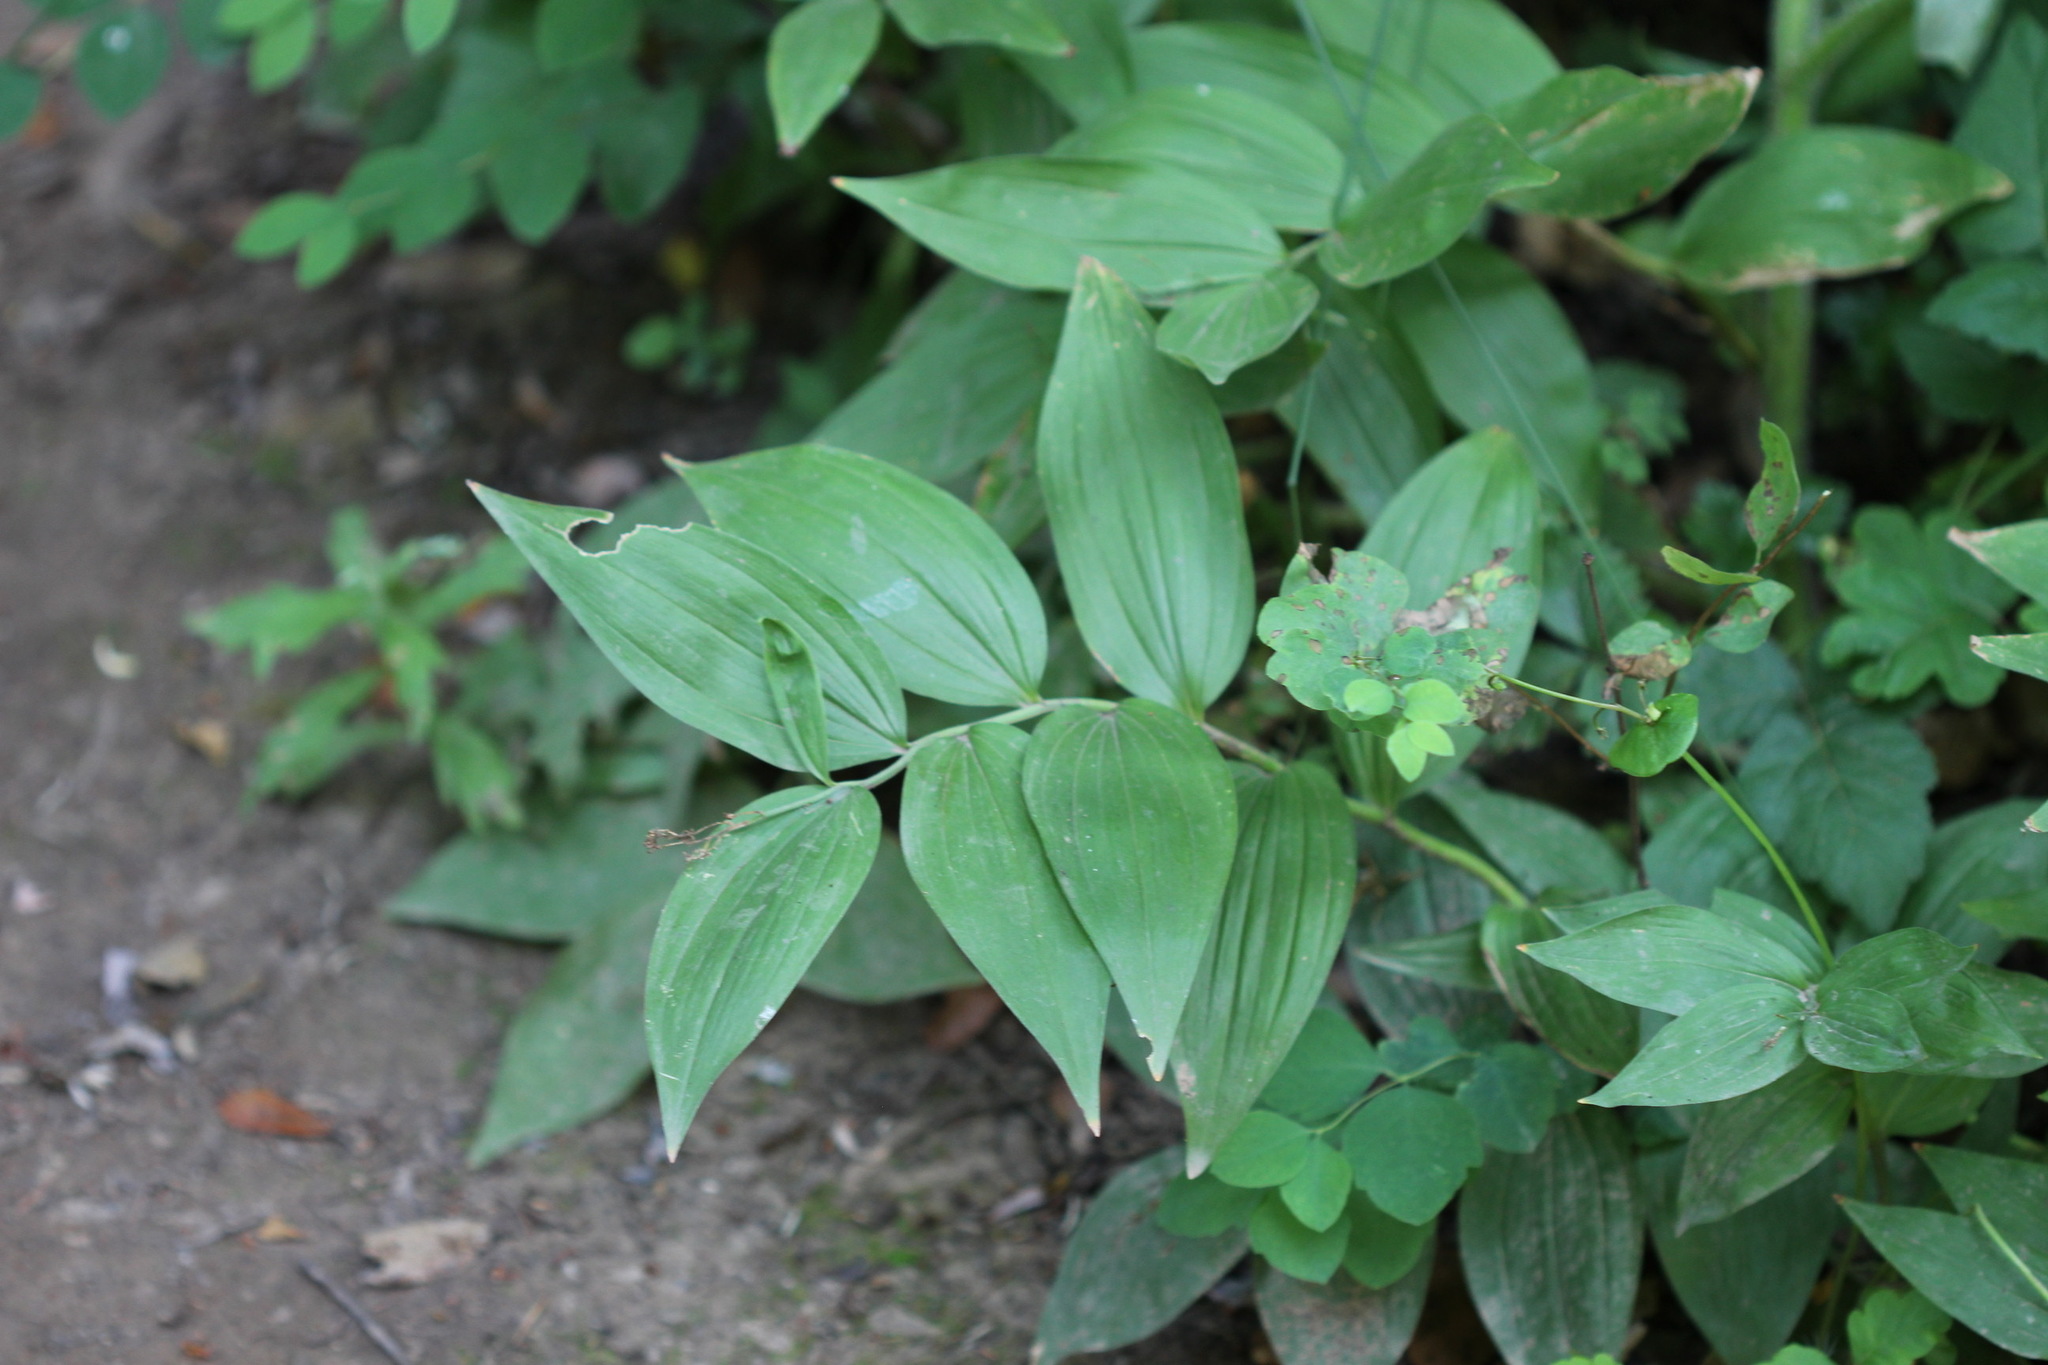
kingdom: Plantae
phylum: Tracheophyta
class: Liliopsida
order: Asparagales
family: Asparagaceae
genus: Maianthemum
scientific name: Maianthemum stellatum
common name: Little false solomon's seal
